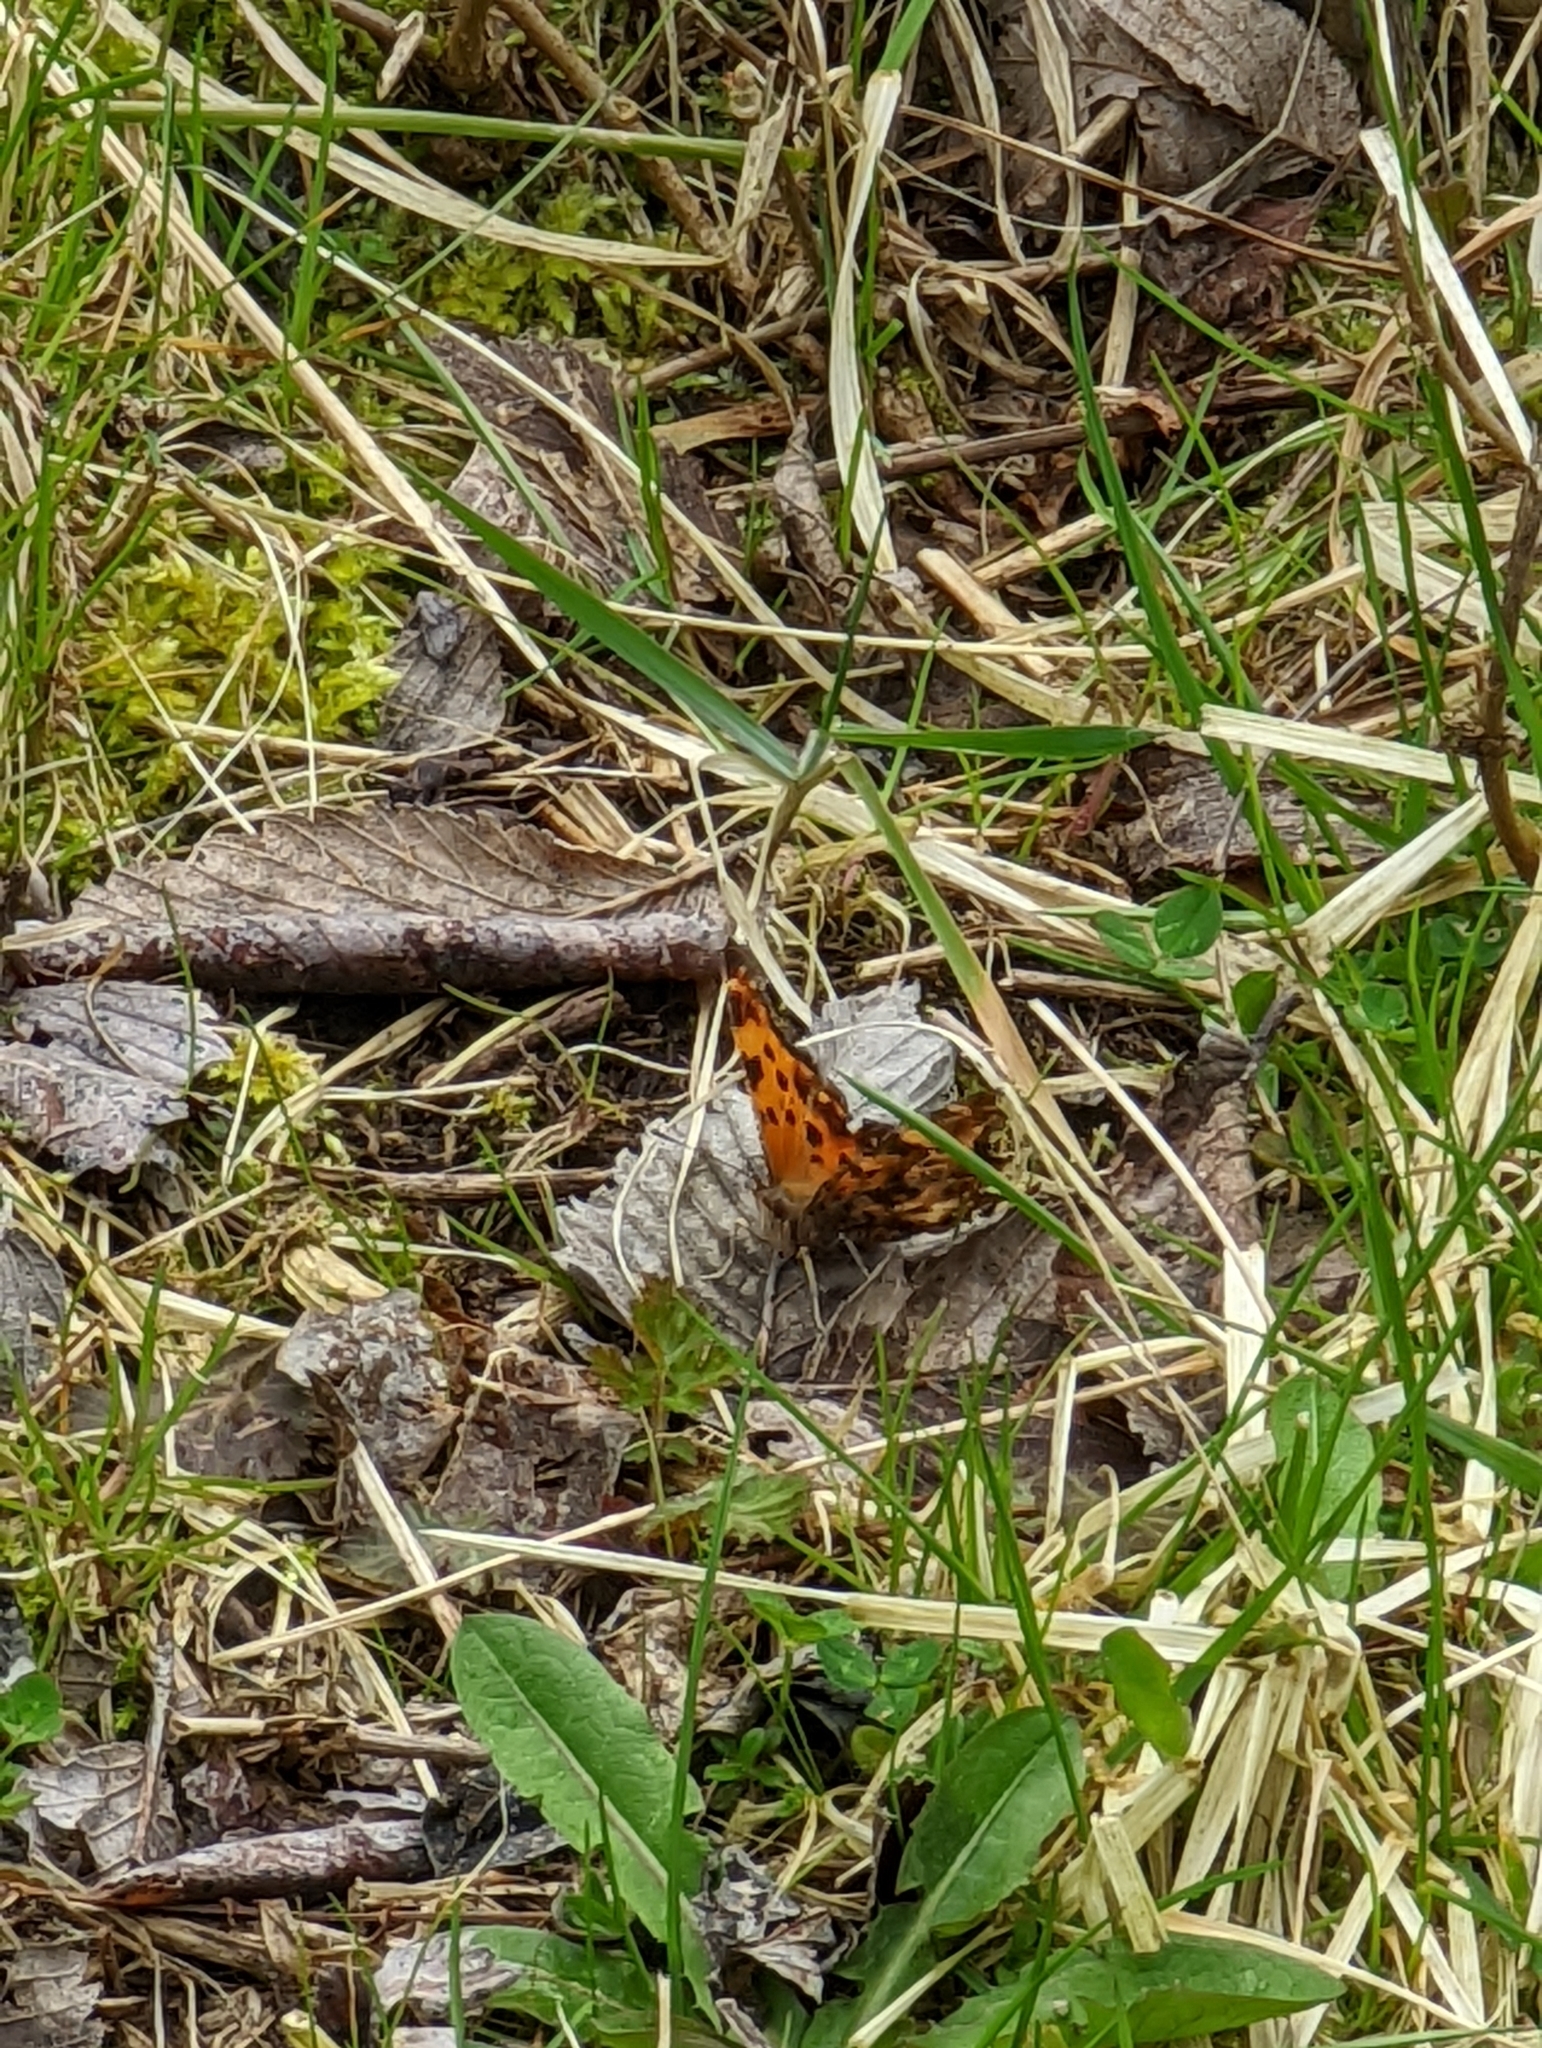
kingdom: Animalia
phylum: Arthropoda
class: Insecta
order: Lepidoptera
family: Nymphalidae
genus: Polygonia
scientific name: Polygonia comma
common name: Eastern comma
